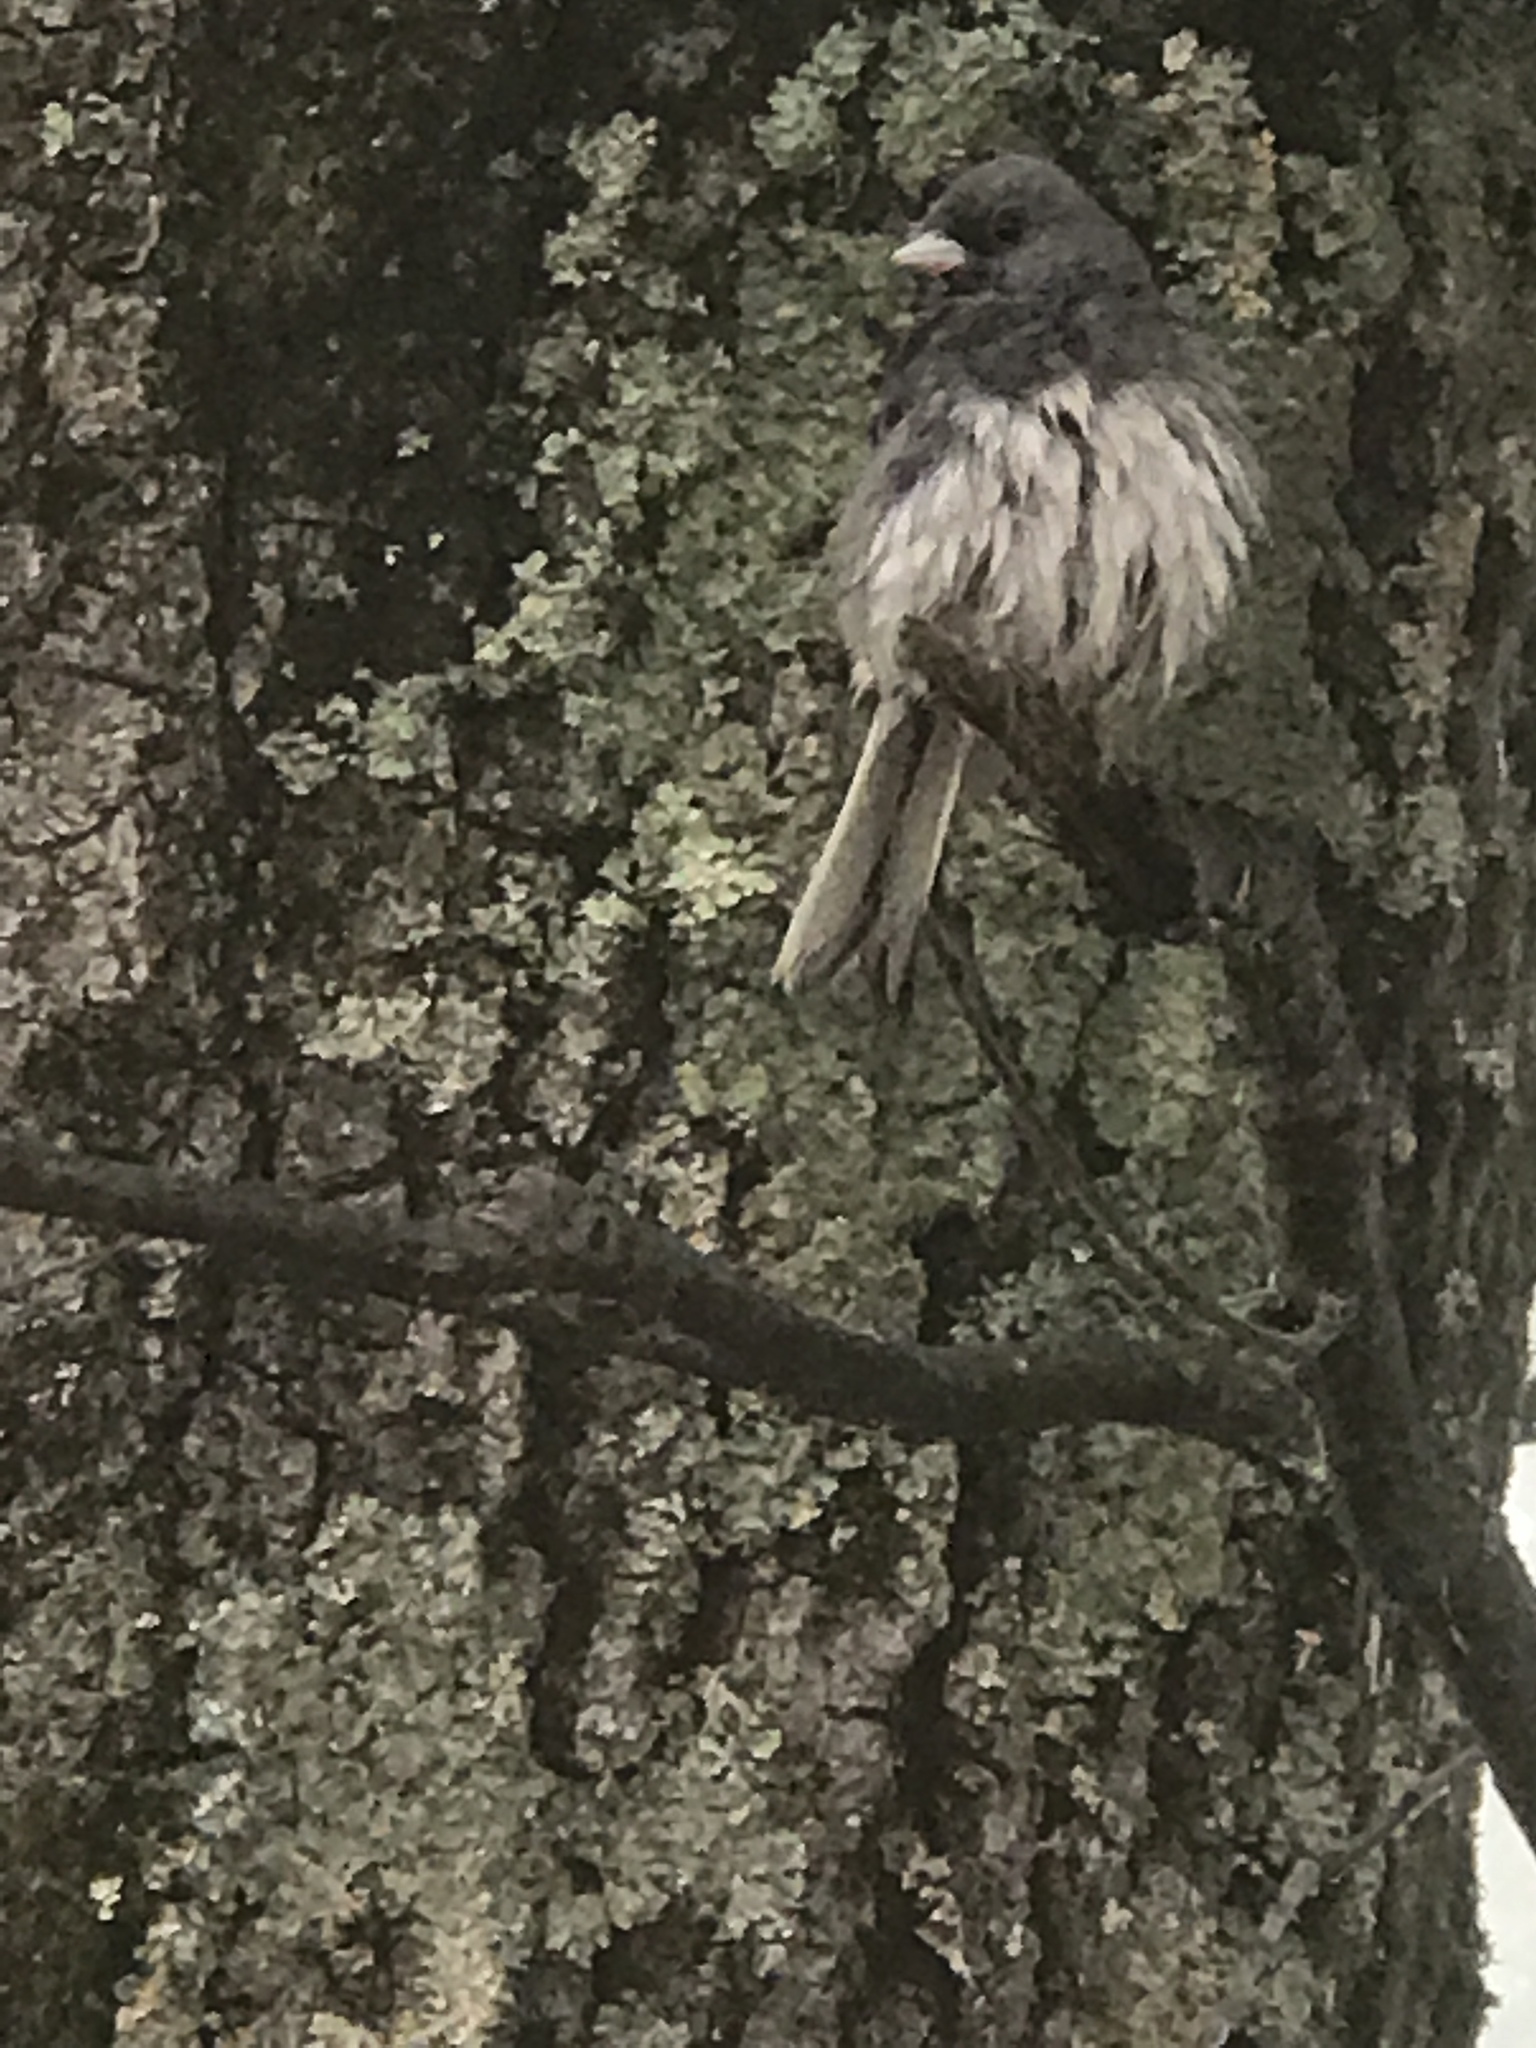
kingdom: Animalia
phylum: Chordata
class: Aves
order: Passeriformes
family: Passerellidae
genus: Junco
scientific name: Junco hyemalis
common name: Dark-eyed junco
